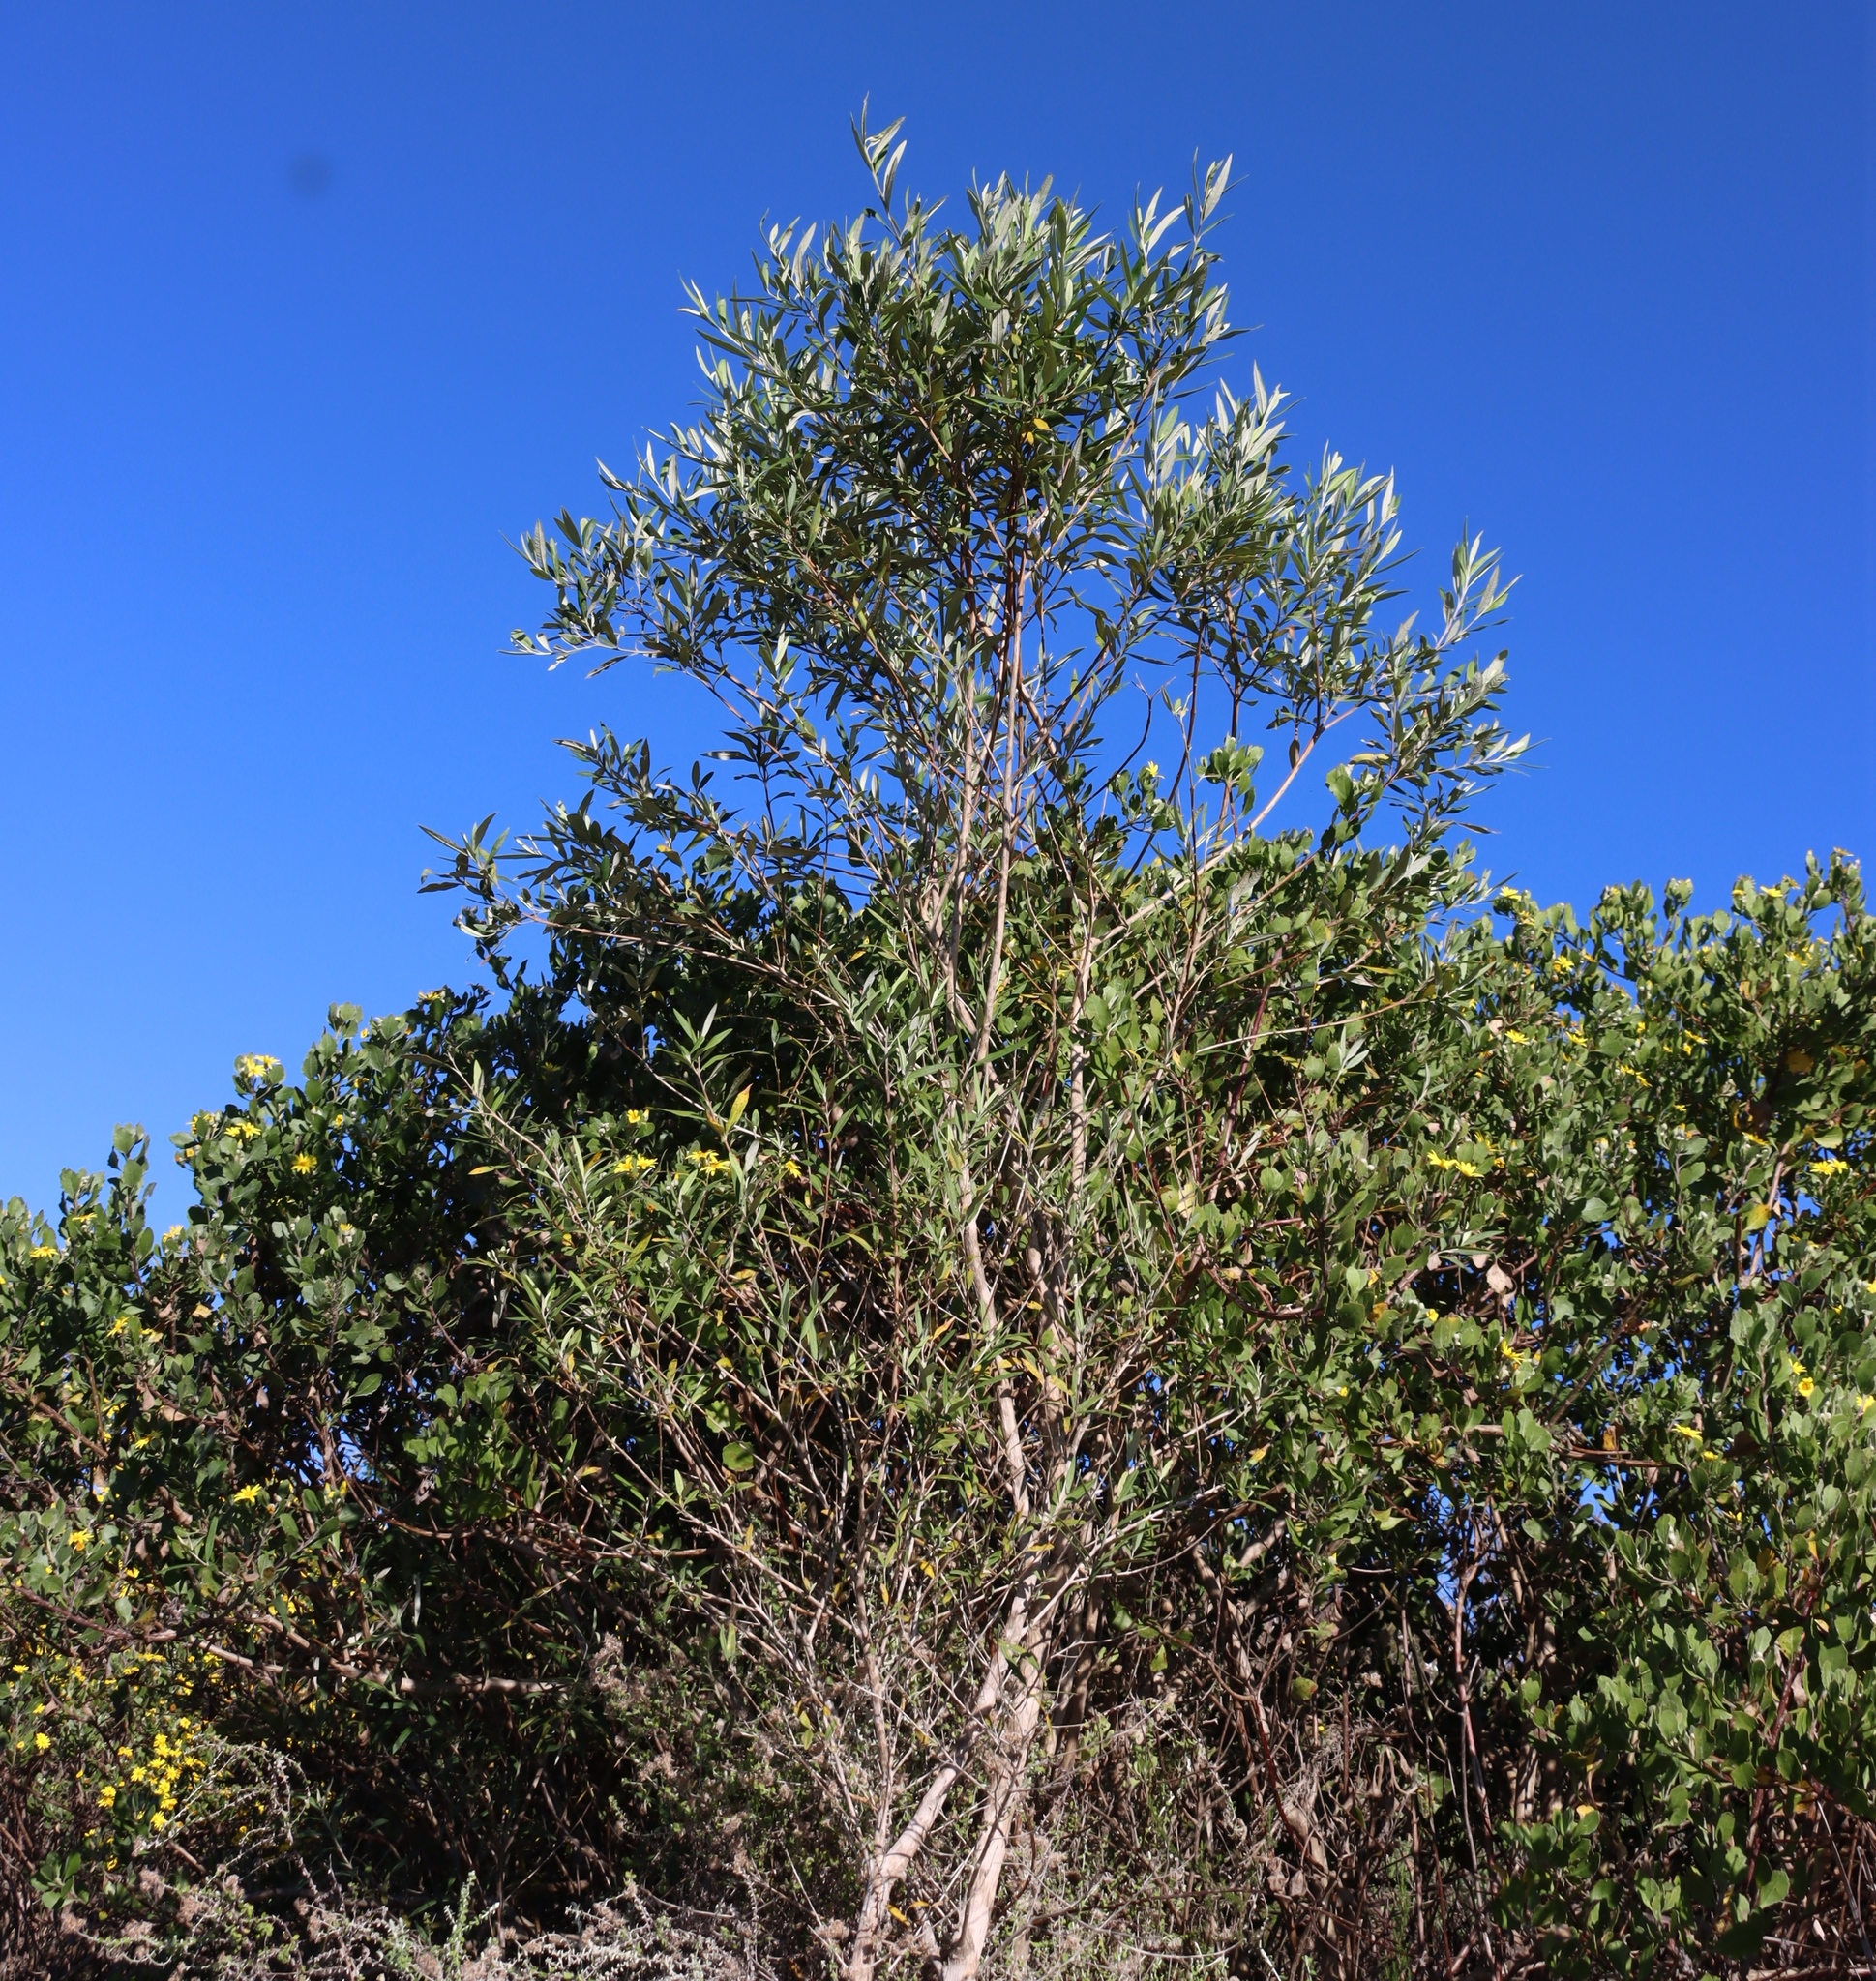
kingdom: Plantae
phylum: Tracheophyta
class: Magnoliopsida
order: Lamiales
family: Scrophulariaceae
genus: Buddleja
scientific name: Buddleja saligna
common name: False olive
